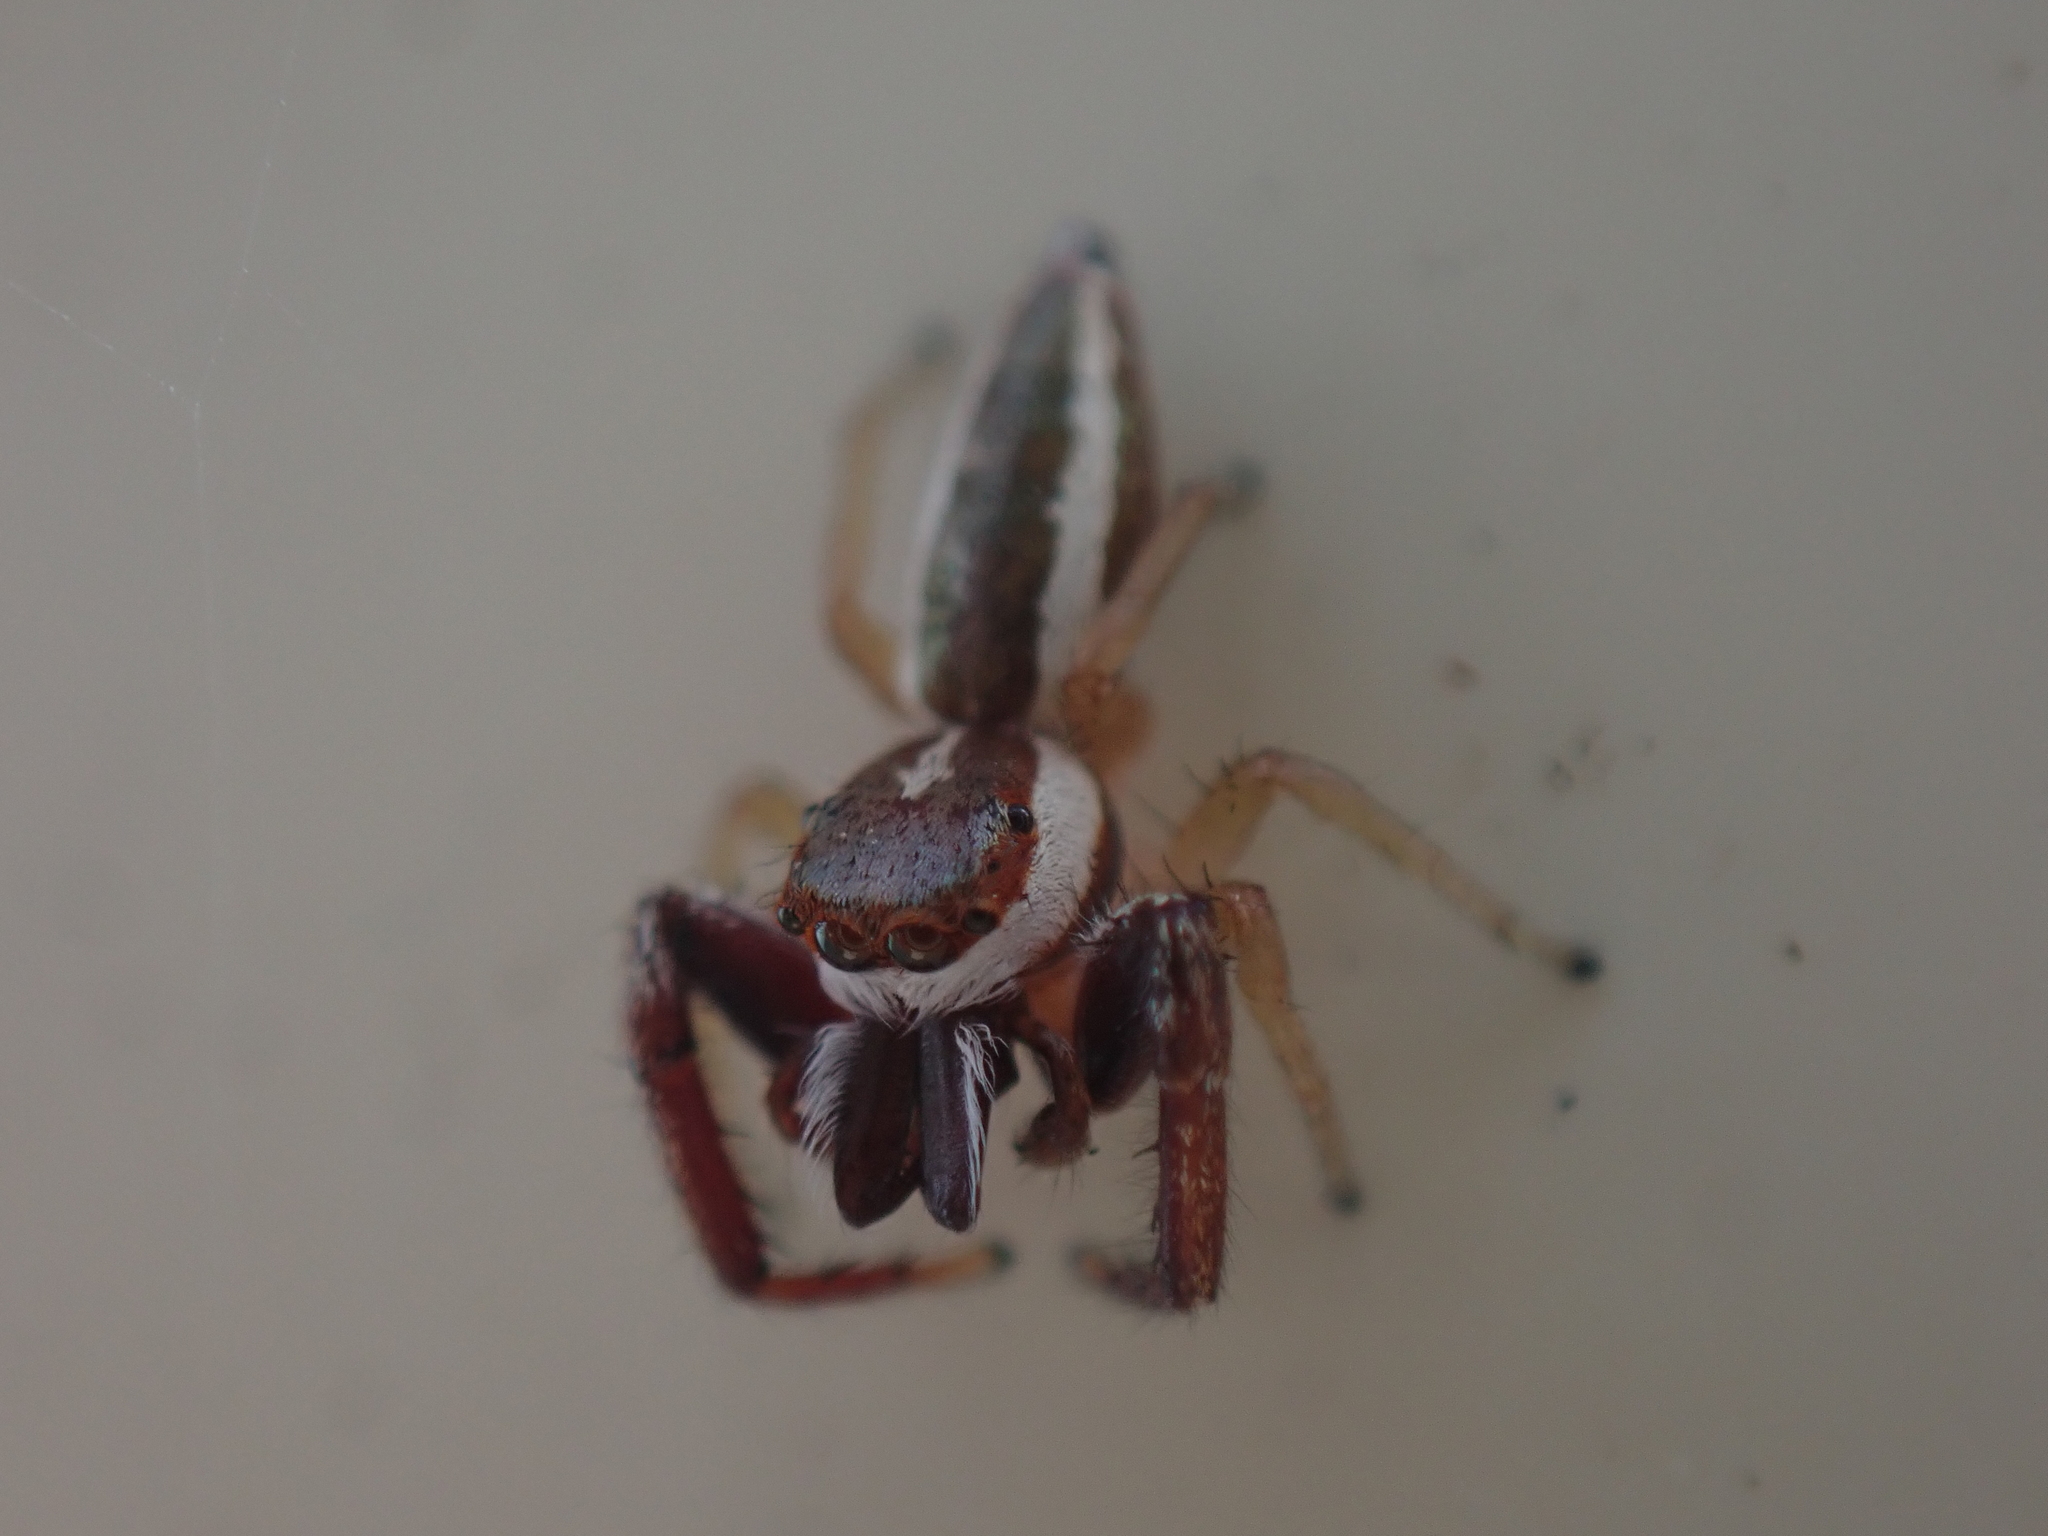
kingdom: Animalia
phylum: Arthropoda
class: Arachnida
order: Araneae
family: Salticidae
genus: Hentzia
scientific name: Hentzia palmarum
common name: Common hentz jumping spider
